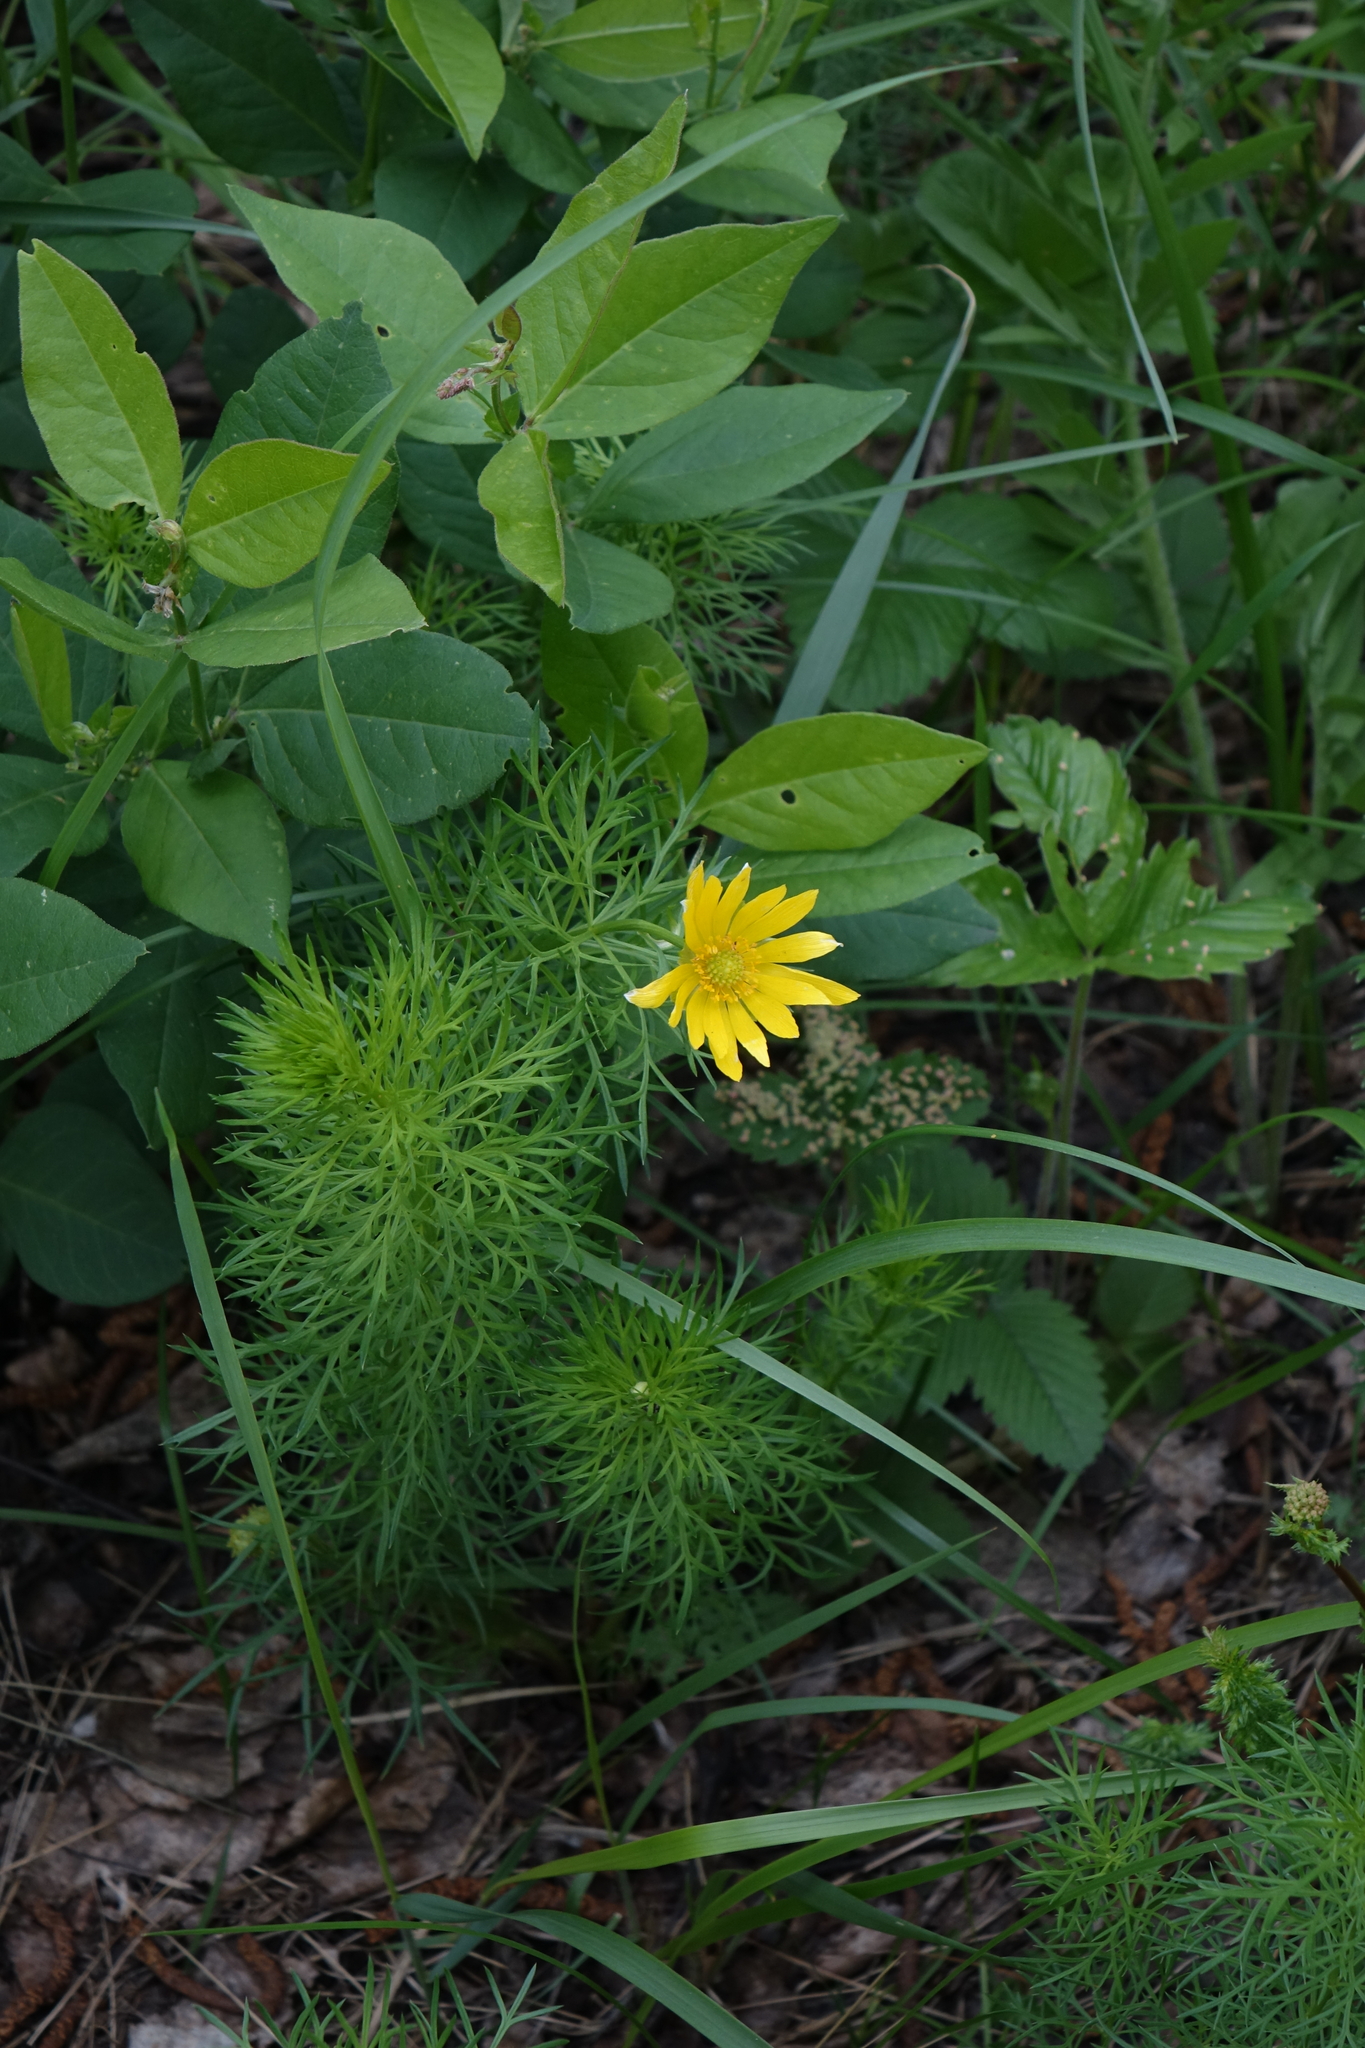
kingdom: Plantae
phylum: Tracheophyta
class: Magnoliopsida
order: Fabales
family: Fabaceae
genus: Vicia
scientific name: Vicia unijuga
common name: Two-leaf vetch
